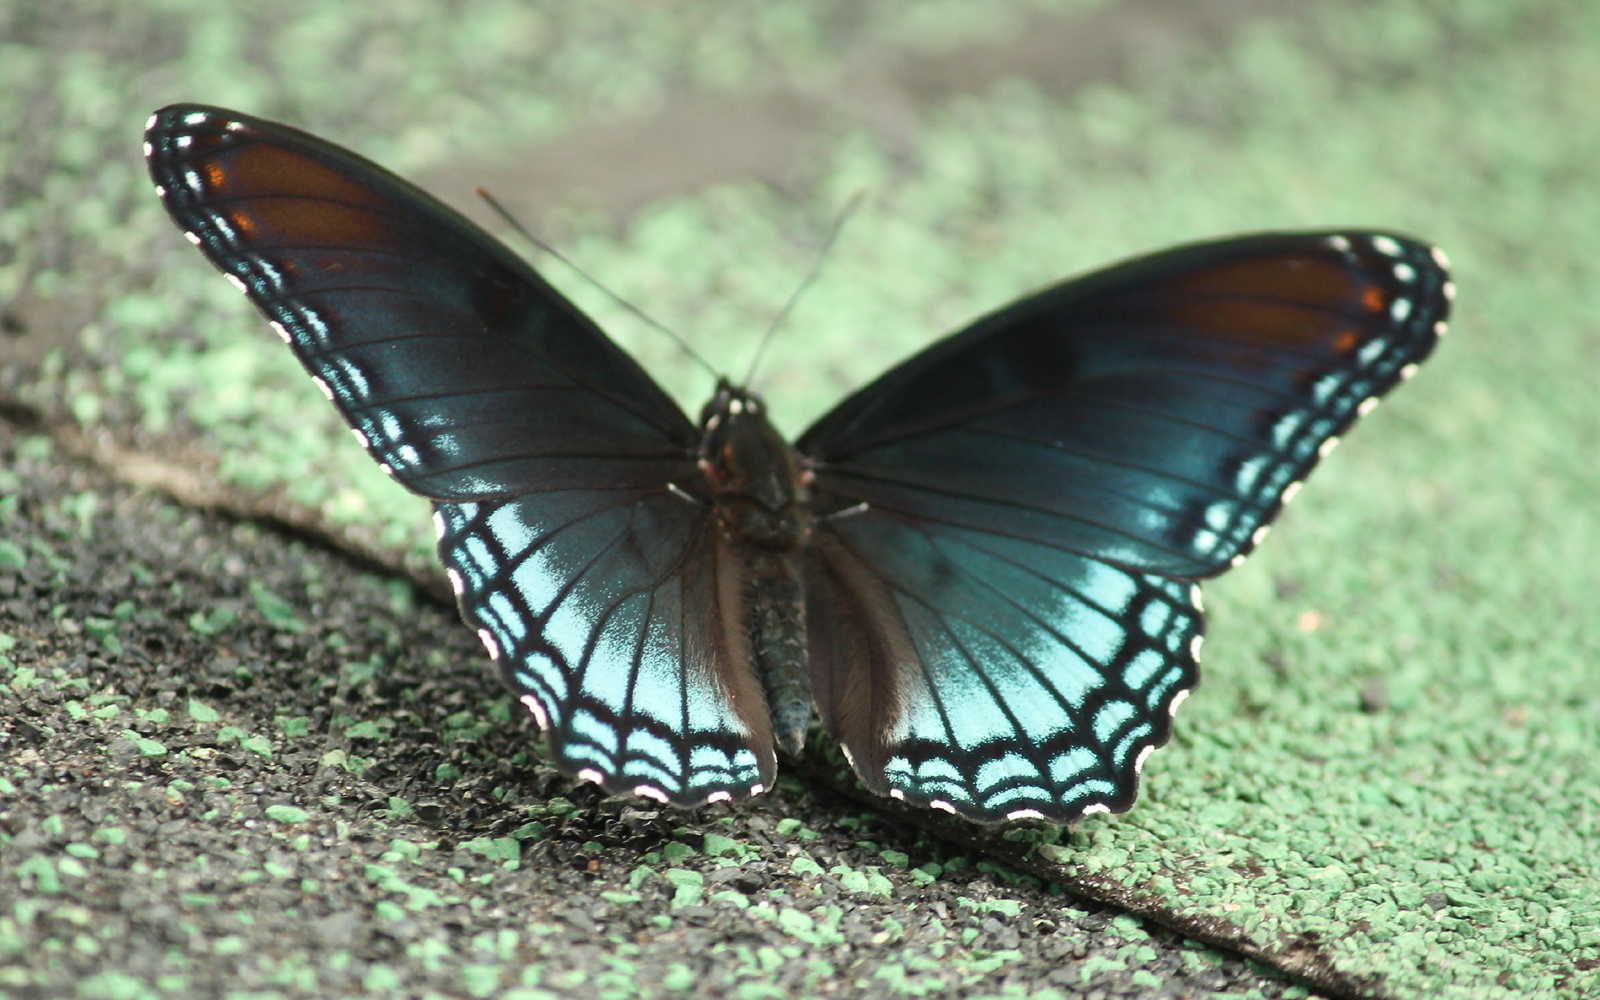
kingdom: Animalia
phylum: Arthropoda
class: Insecta
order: Lepidoptera
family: Nymphalidae
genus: Limenitis
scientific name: Limenitis astyanax
